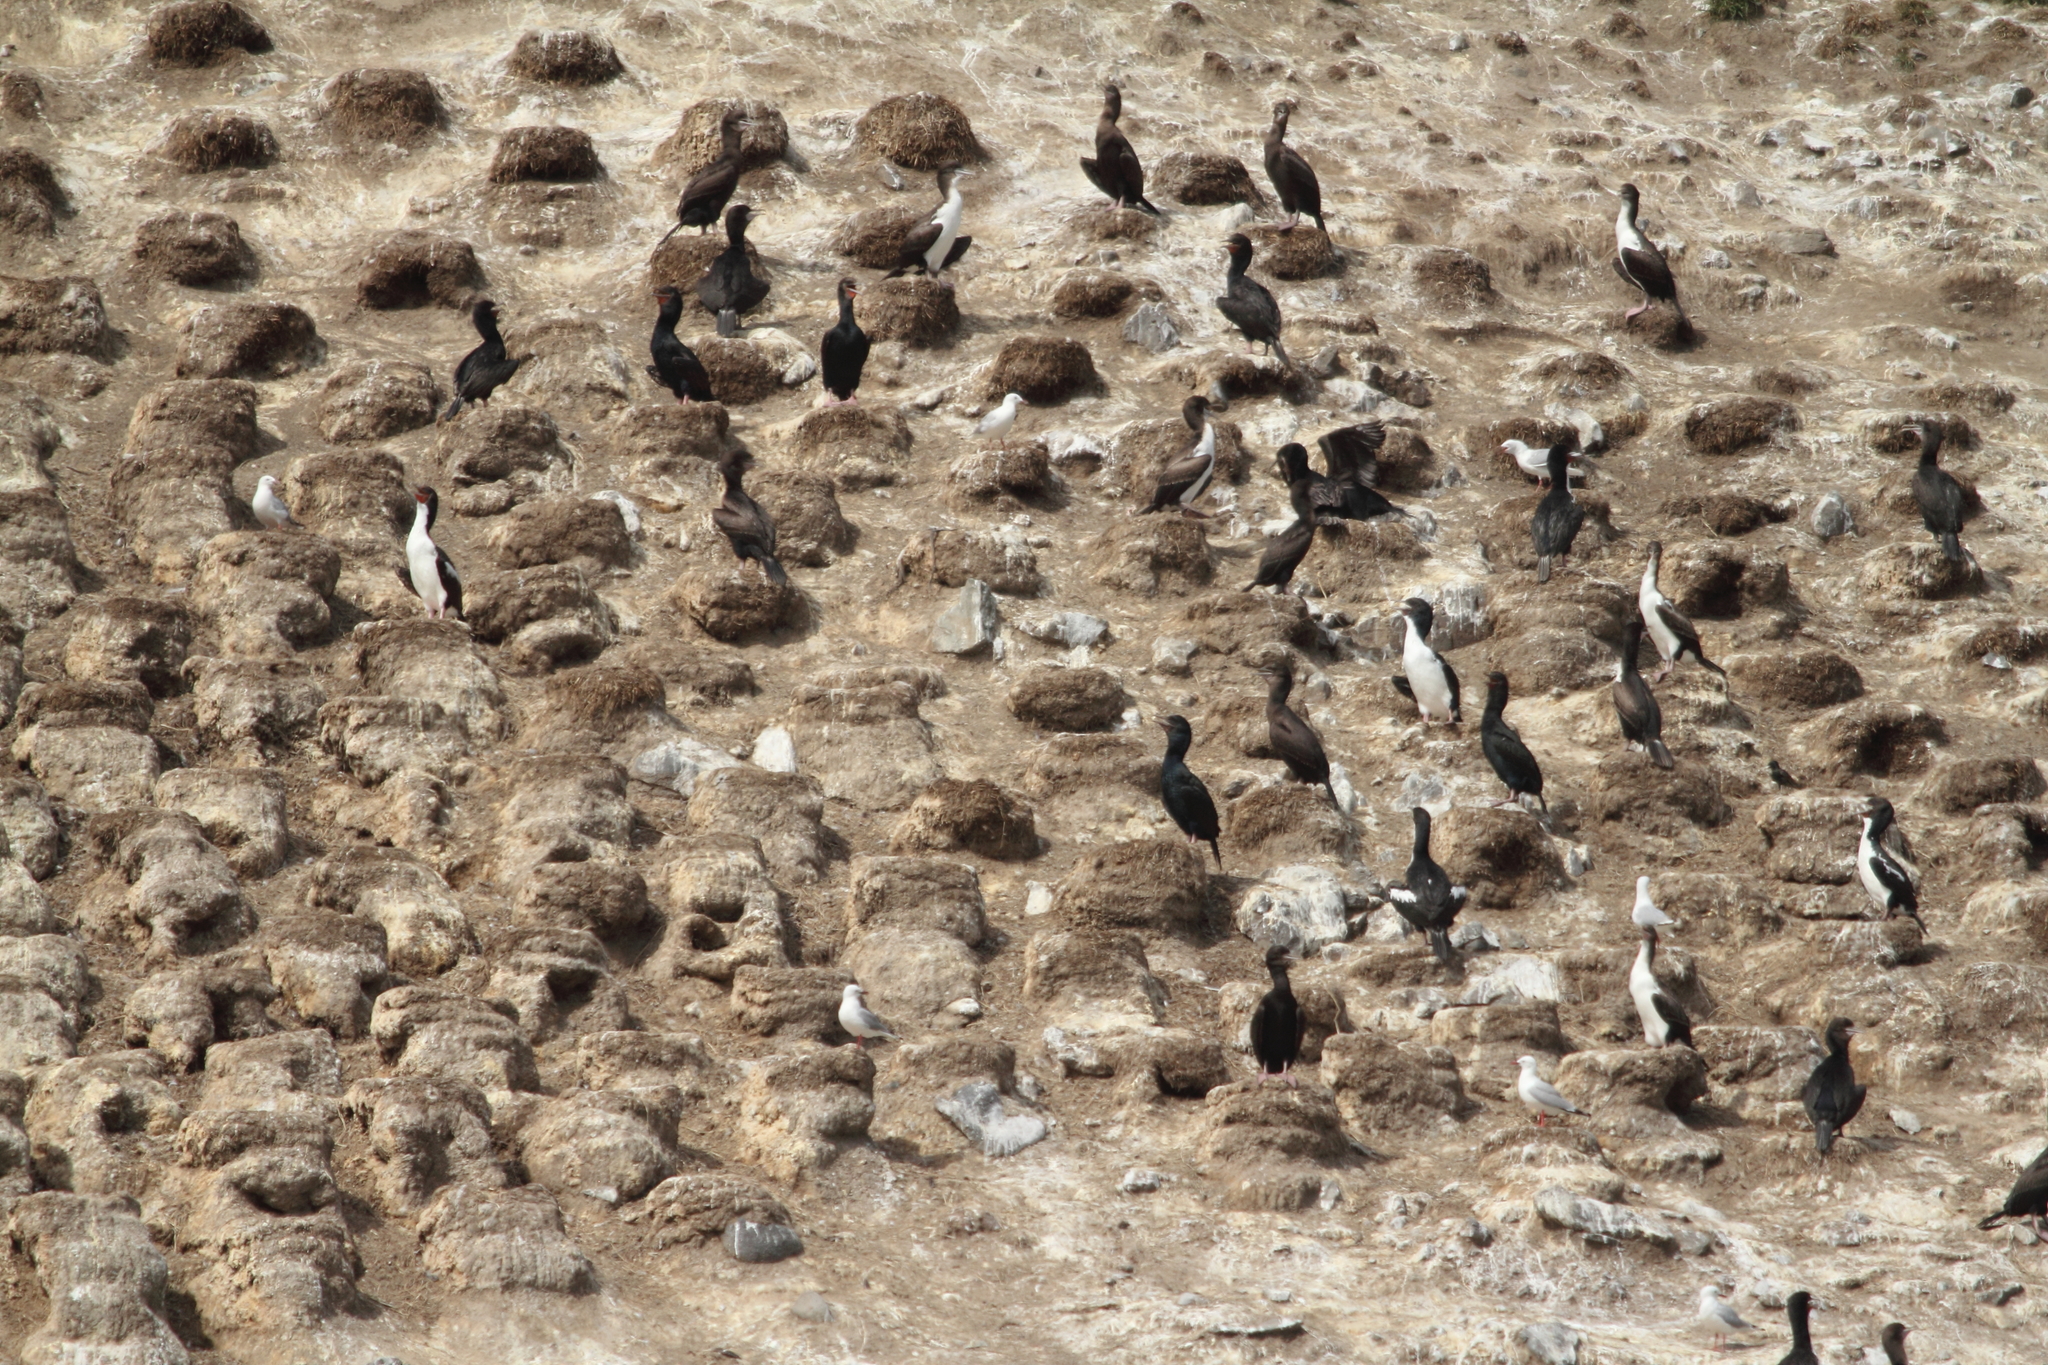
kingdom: Animalia
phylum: Chordata
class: Aves
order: Suliformes
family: Phalacrocoracidae
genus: Leucocarbo
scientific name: Leucocarbo chalconotus
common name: Stewart shag
